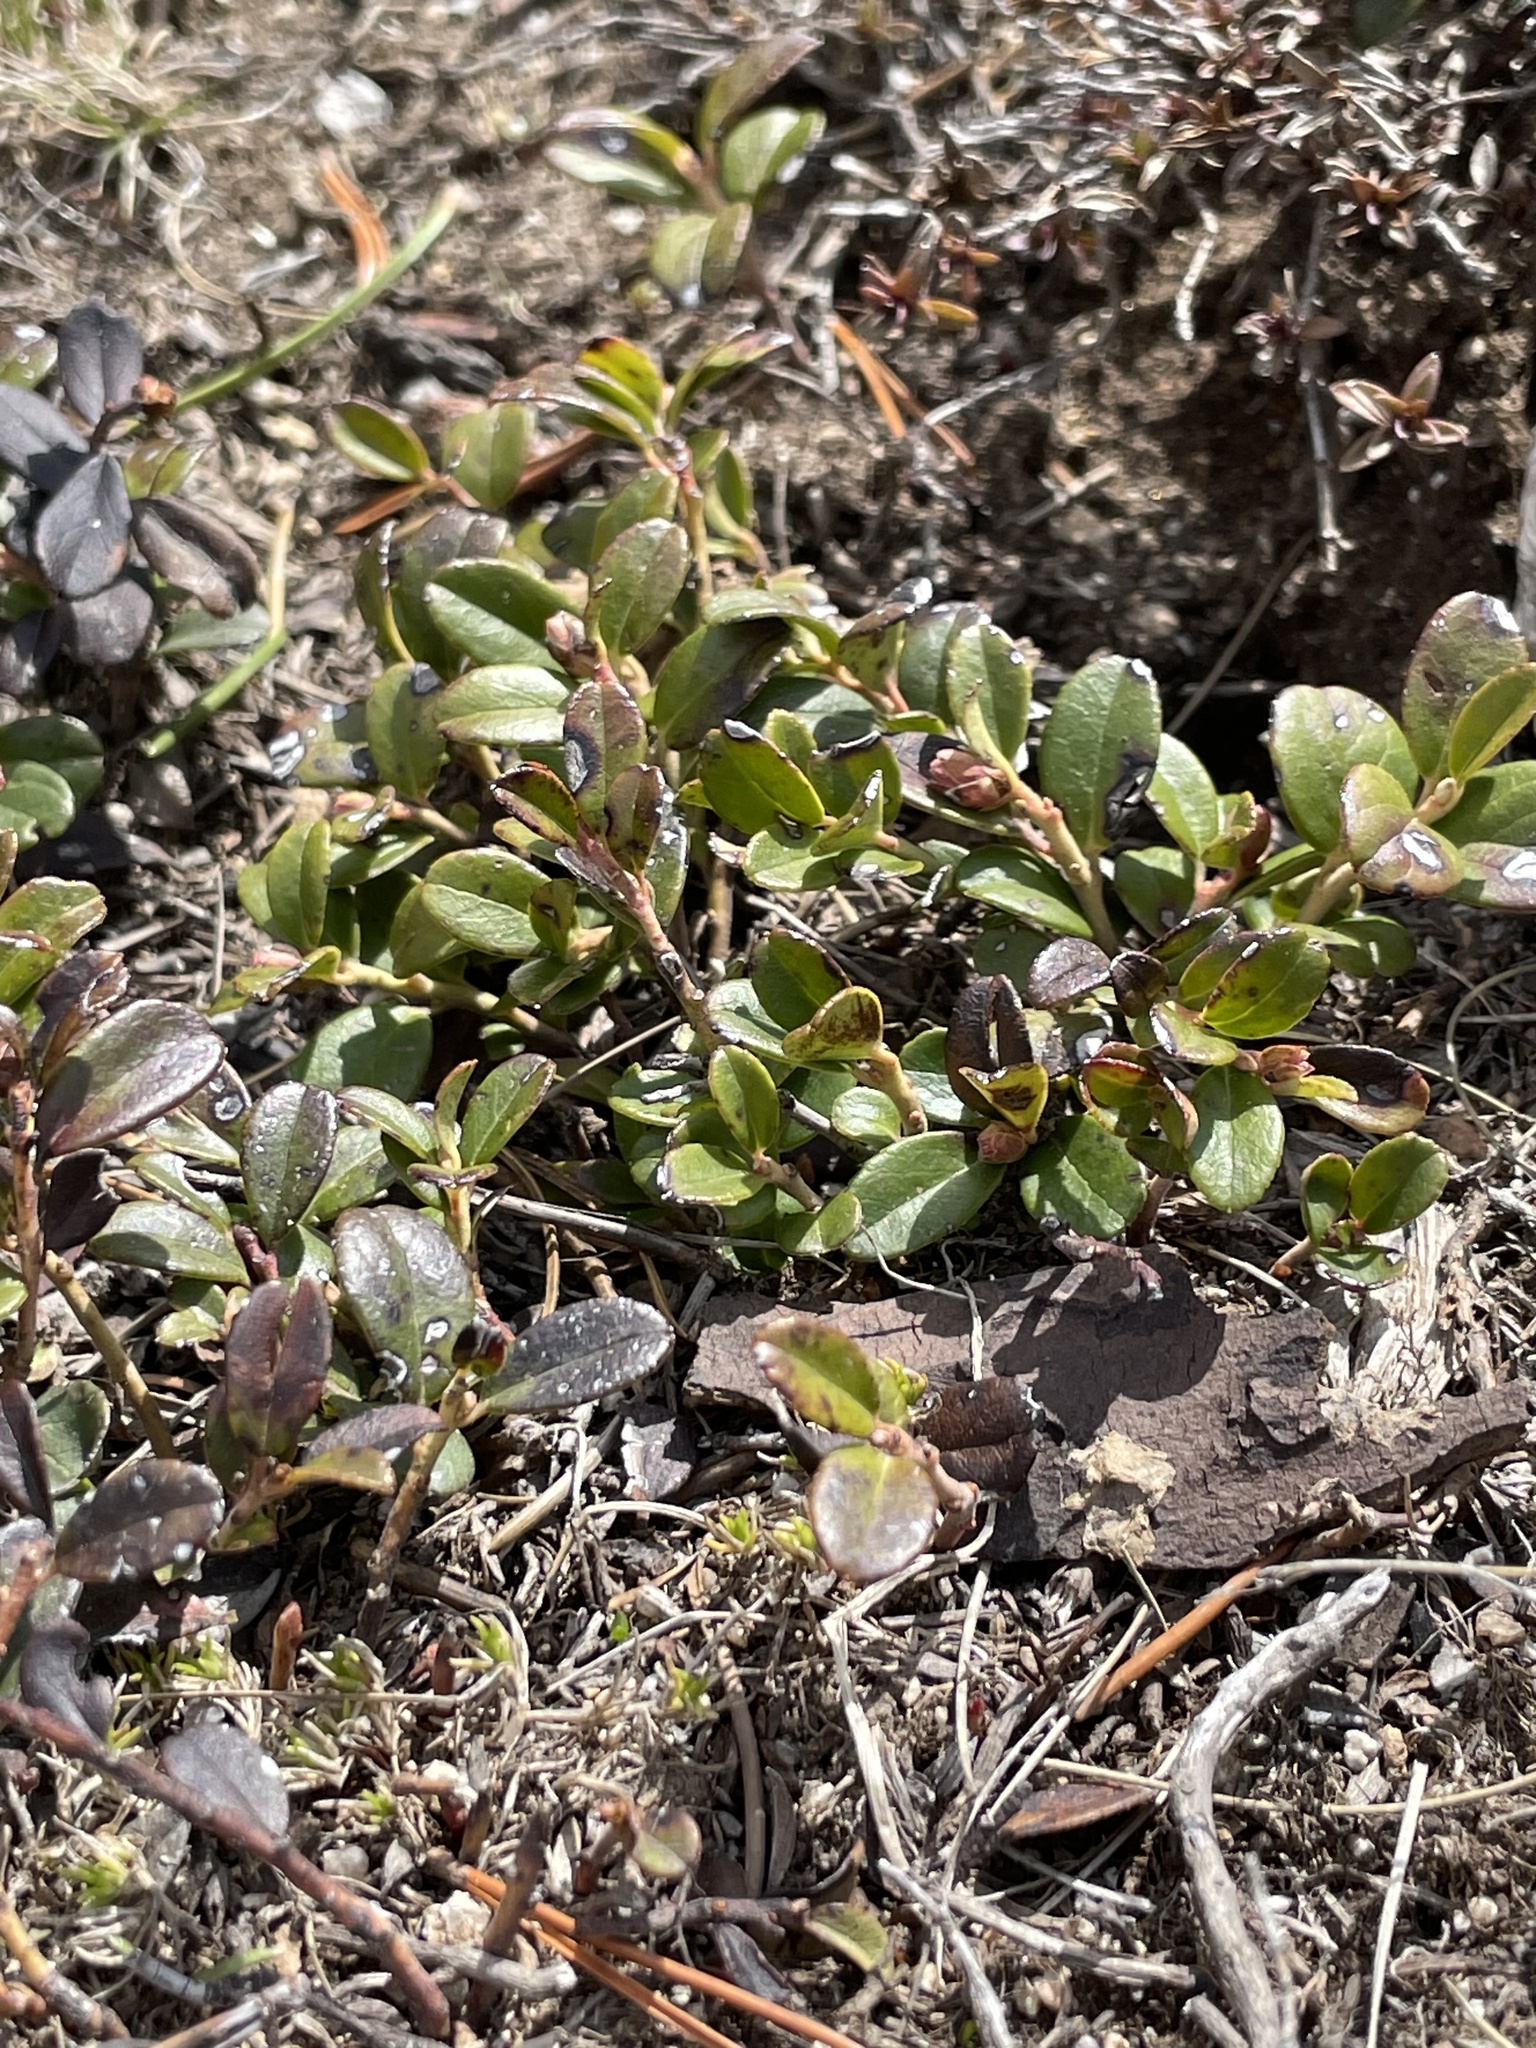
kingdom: Plantae
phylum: Tracheophyta
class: Magnoliopsida
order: Ericales
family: Ericaceae
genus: Vaccinium
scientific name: Vaccinium vitis-idaea
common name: Cowberry
